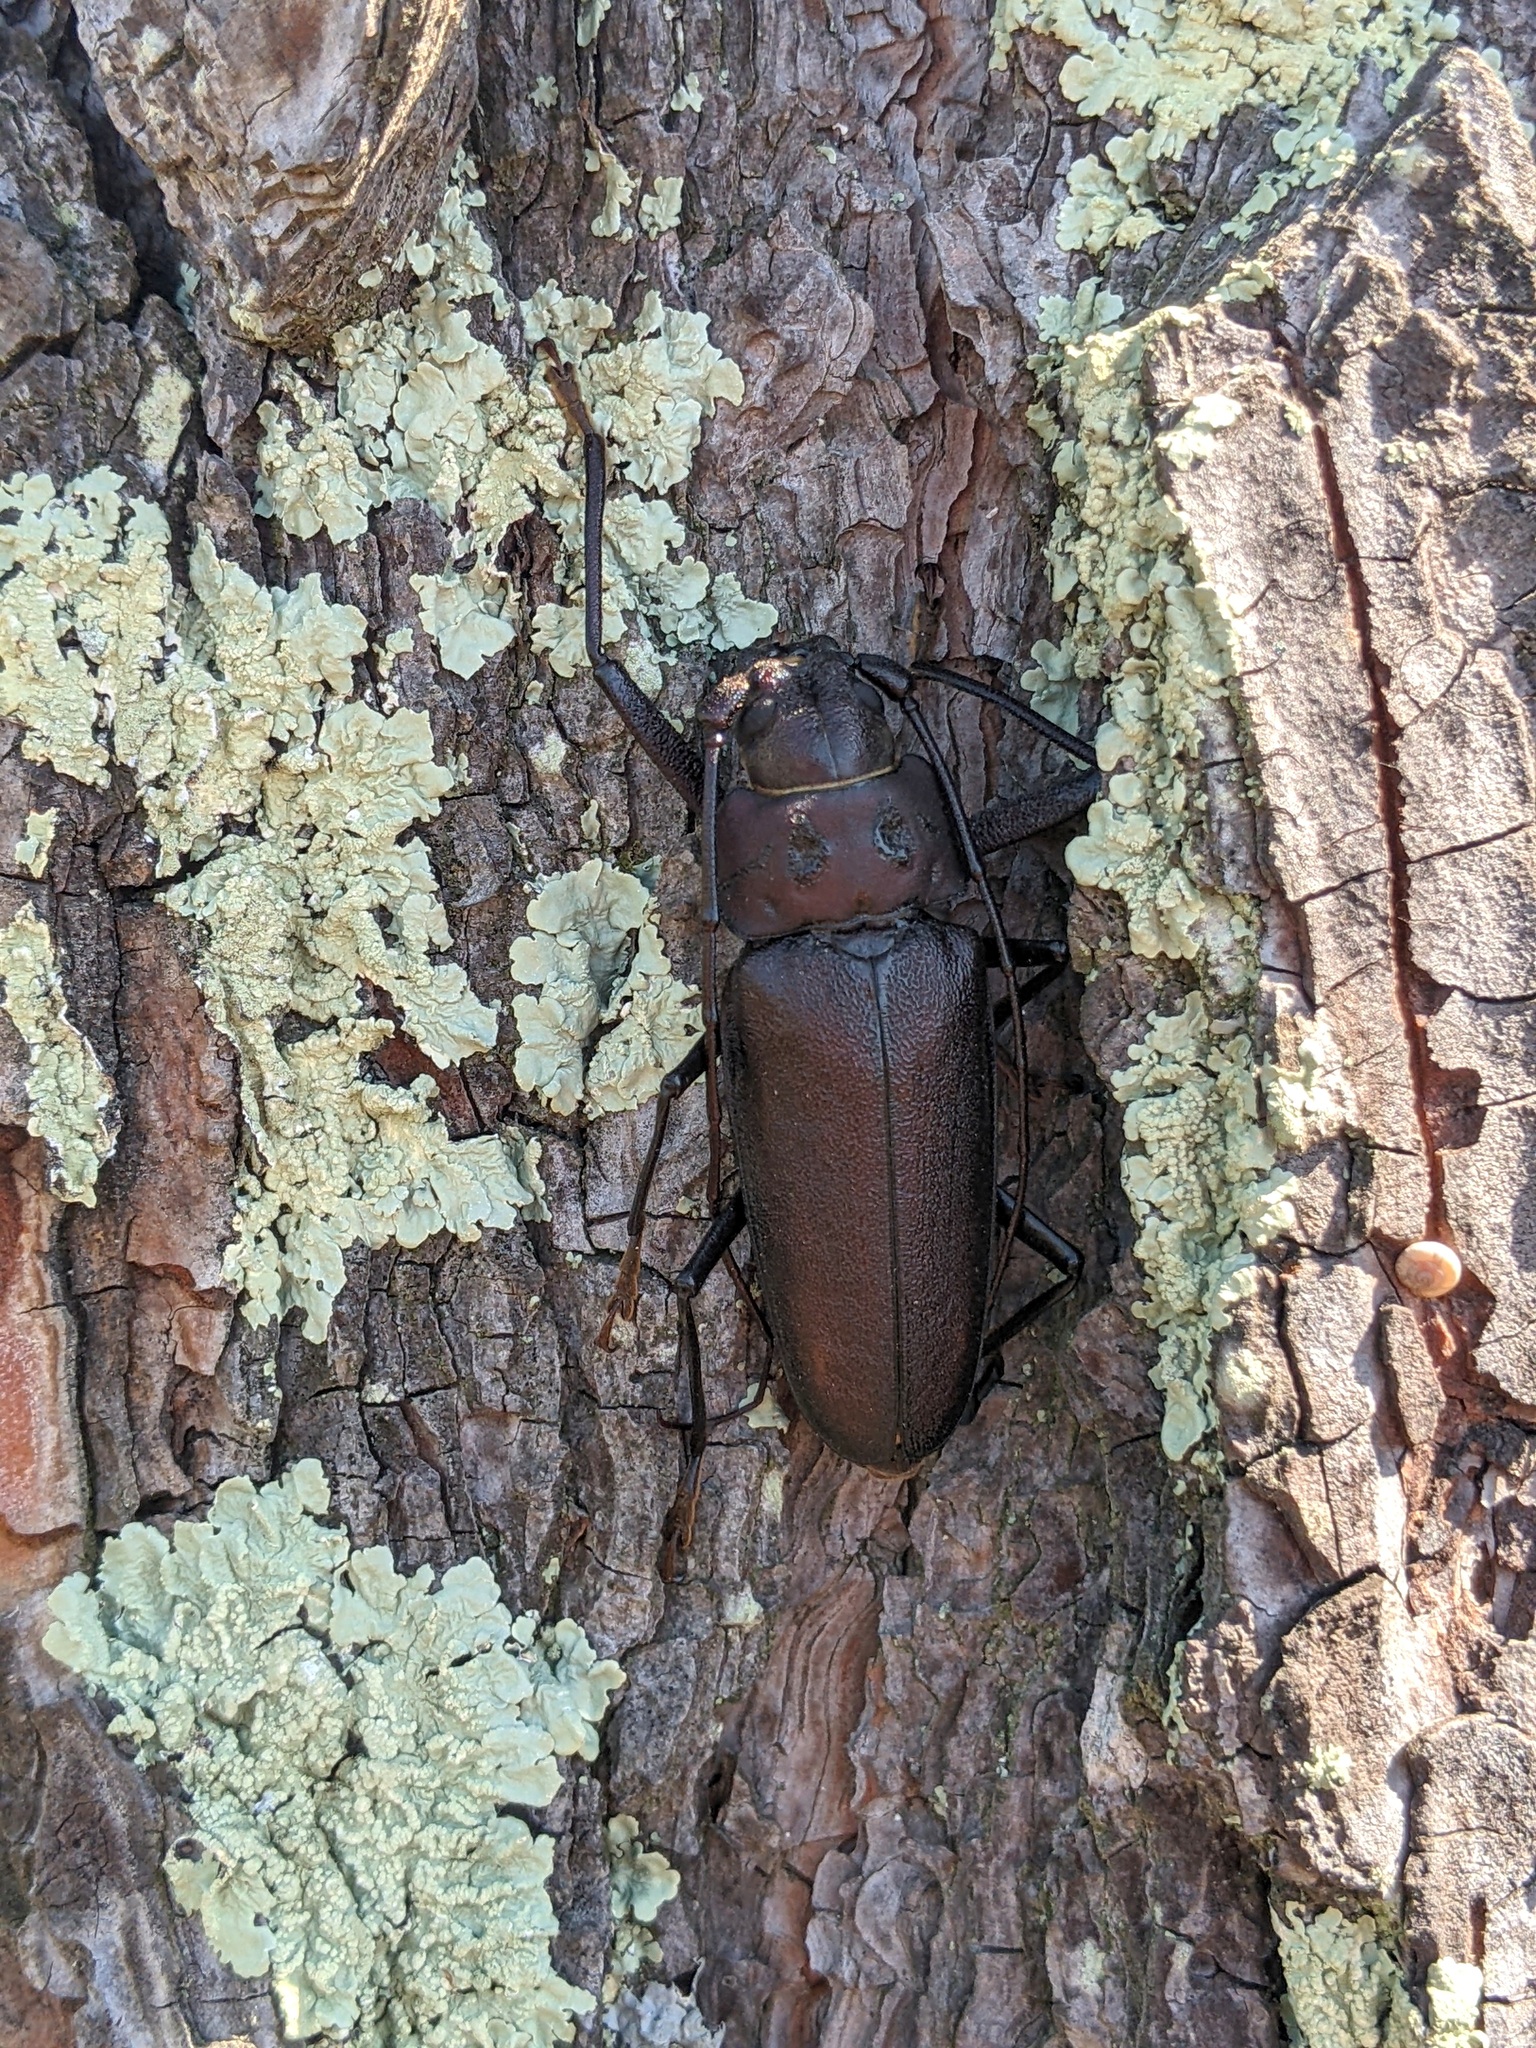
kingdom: Animalia
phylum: Arthropoda
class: Insecta
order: Coleoptera
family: Cerambycidae
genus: Ergates
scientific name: Ergates faber
